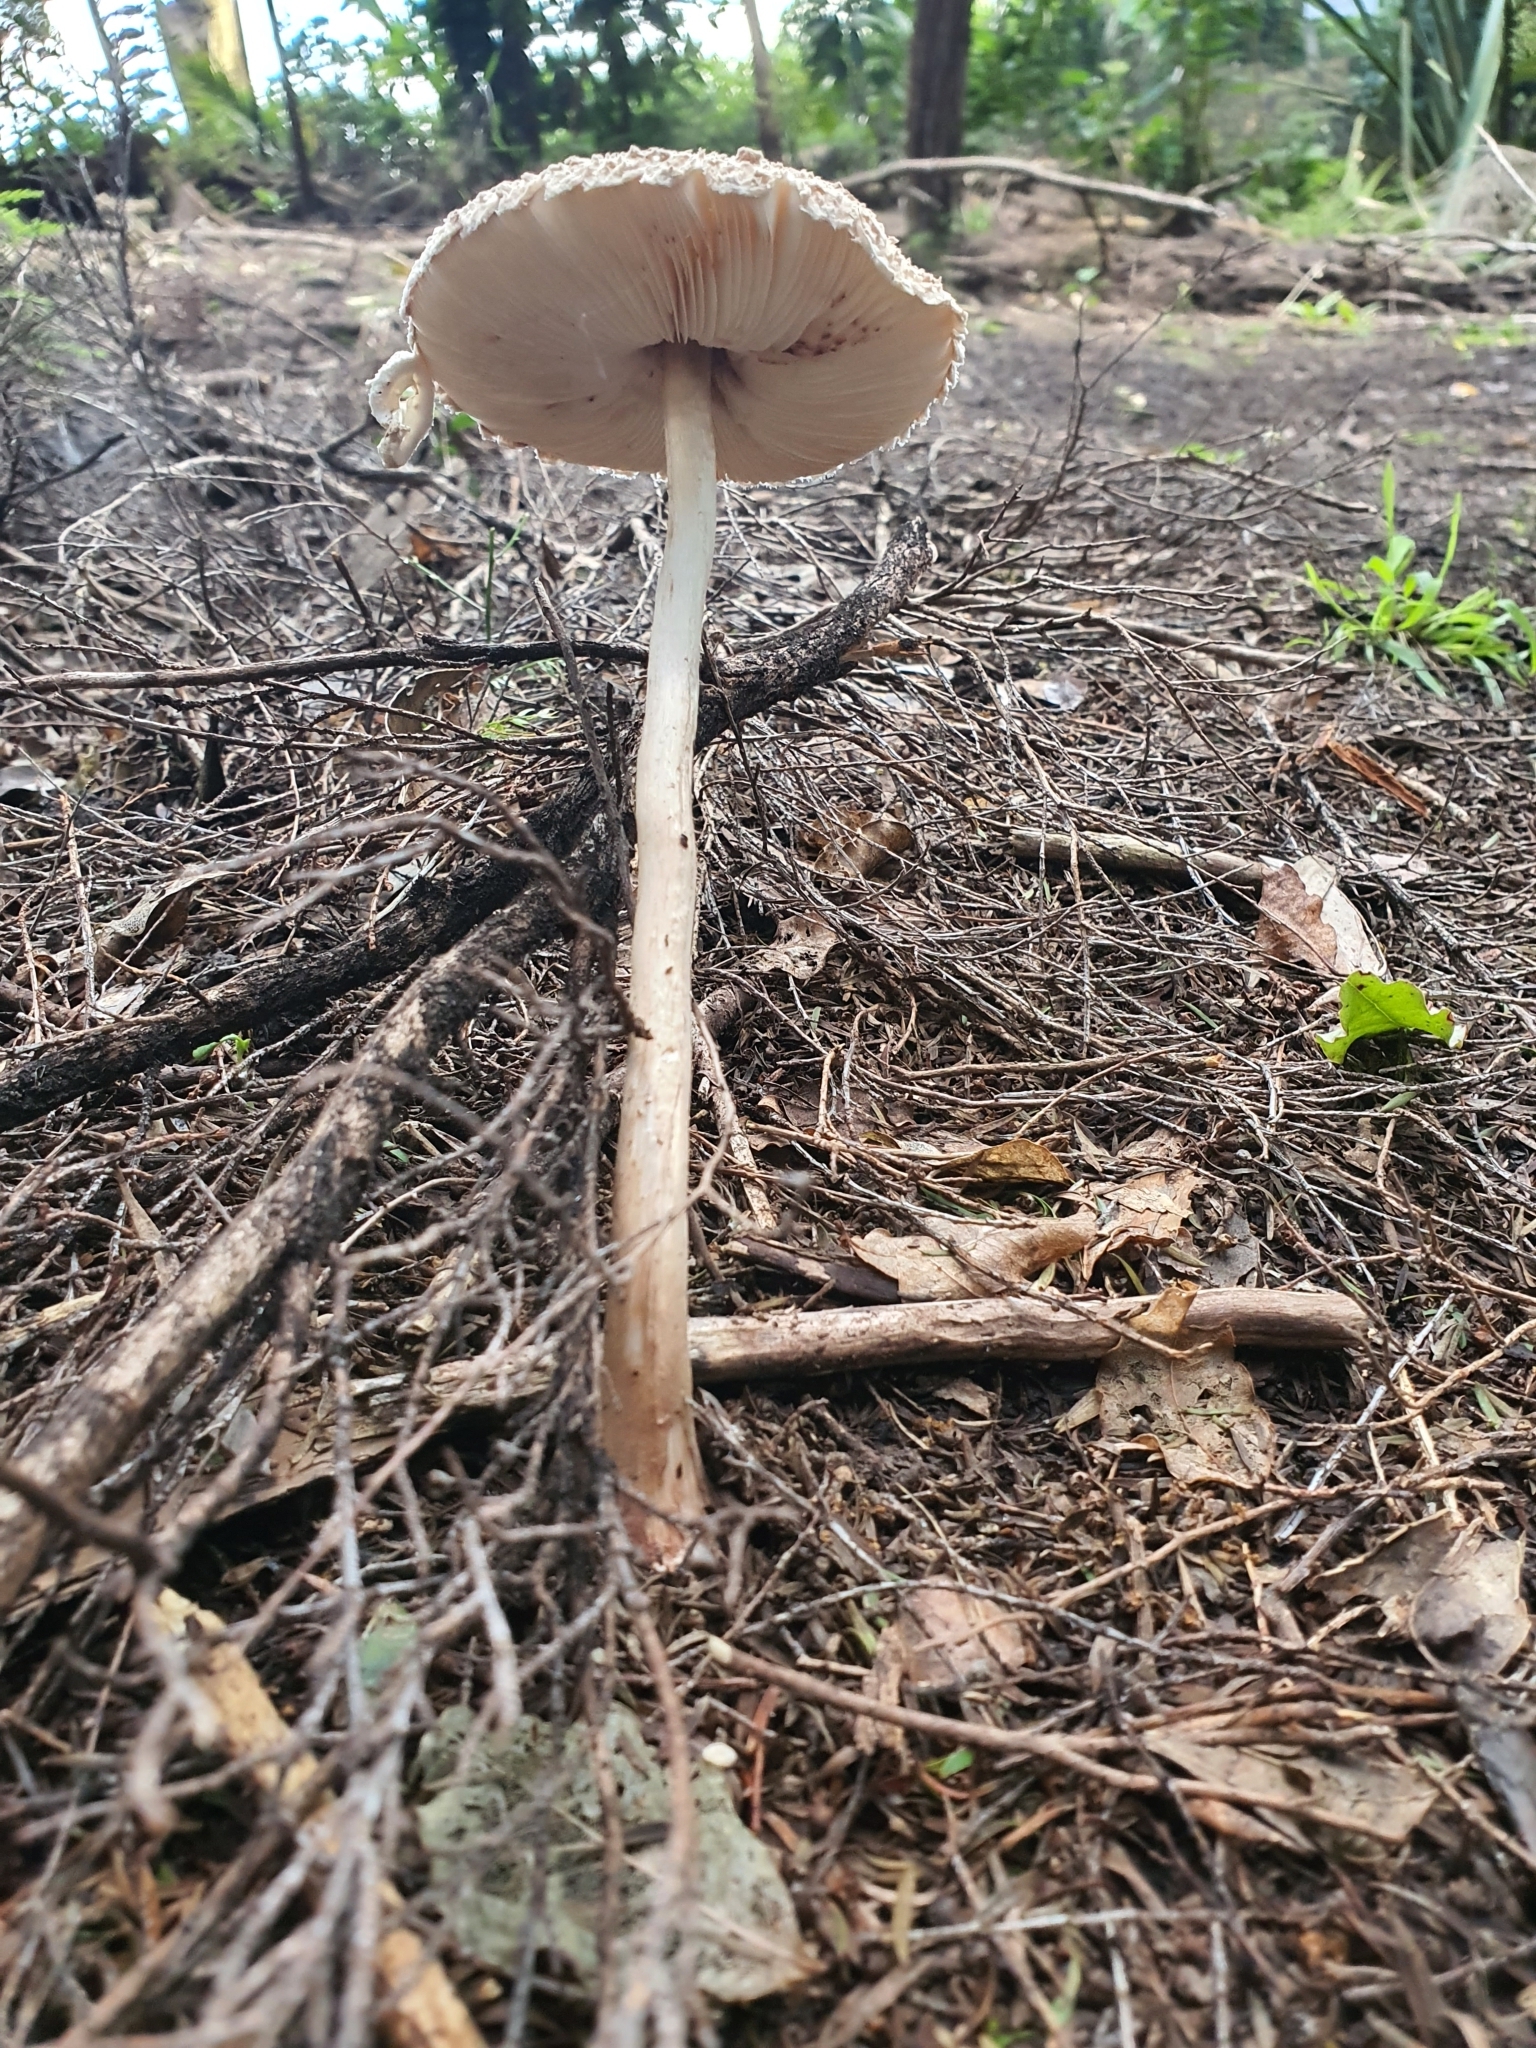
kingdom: Fungi
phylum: Basidiomycota
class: Agaricomycetes
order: Agaricales
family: Agaricaceae
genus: Macrolepiota
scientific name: Macrolepiota clelandii
